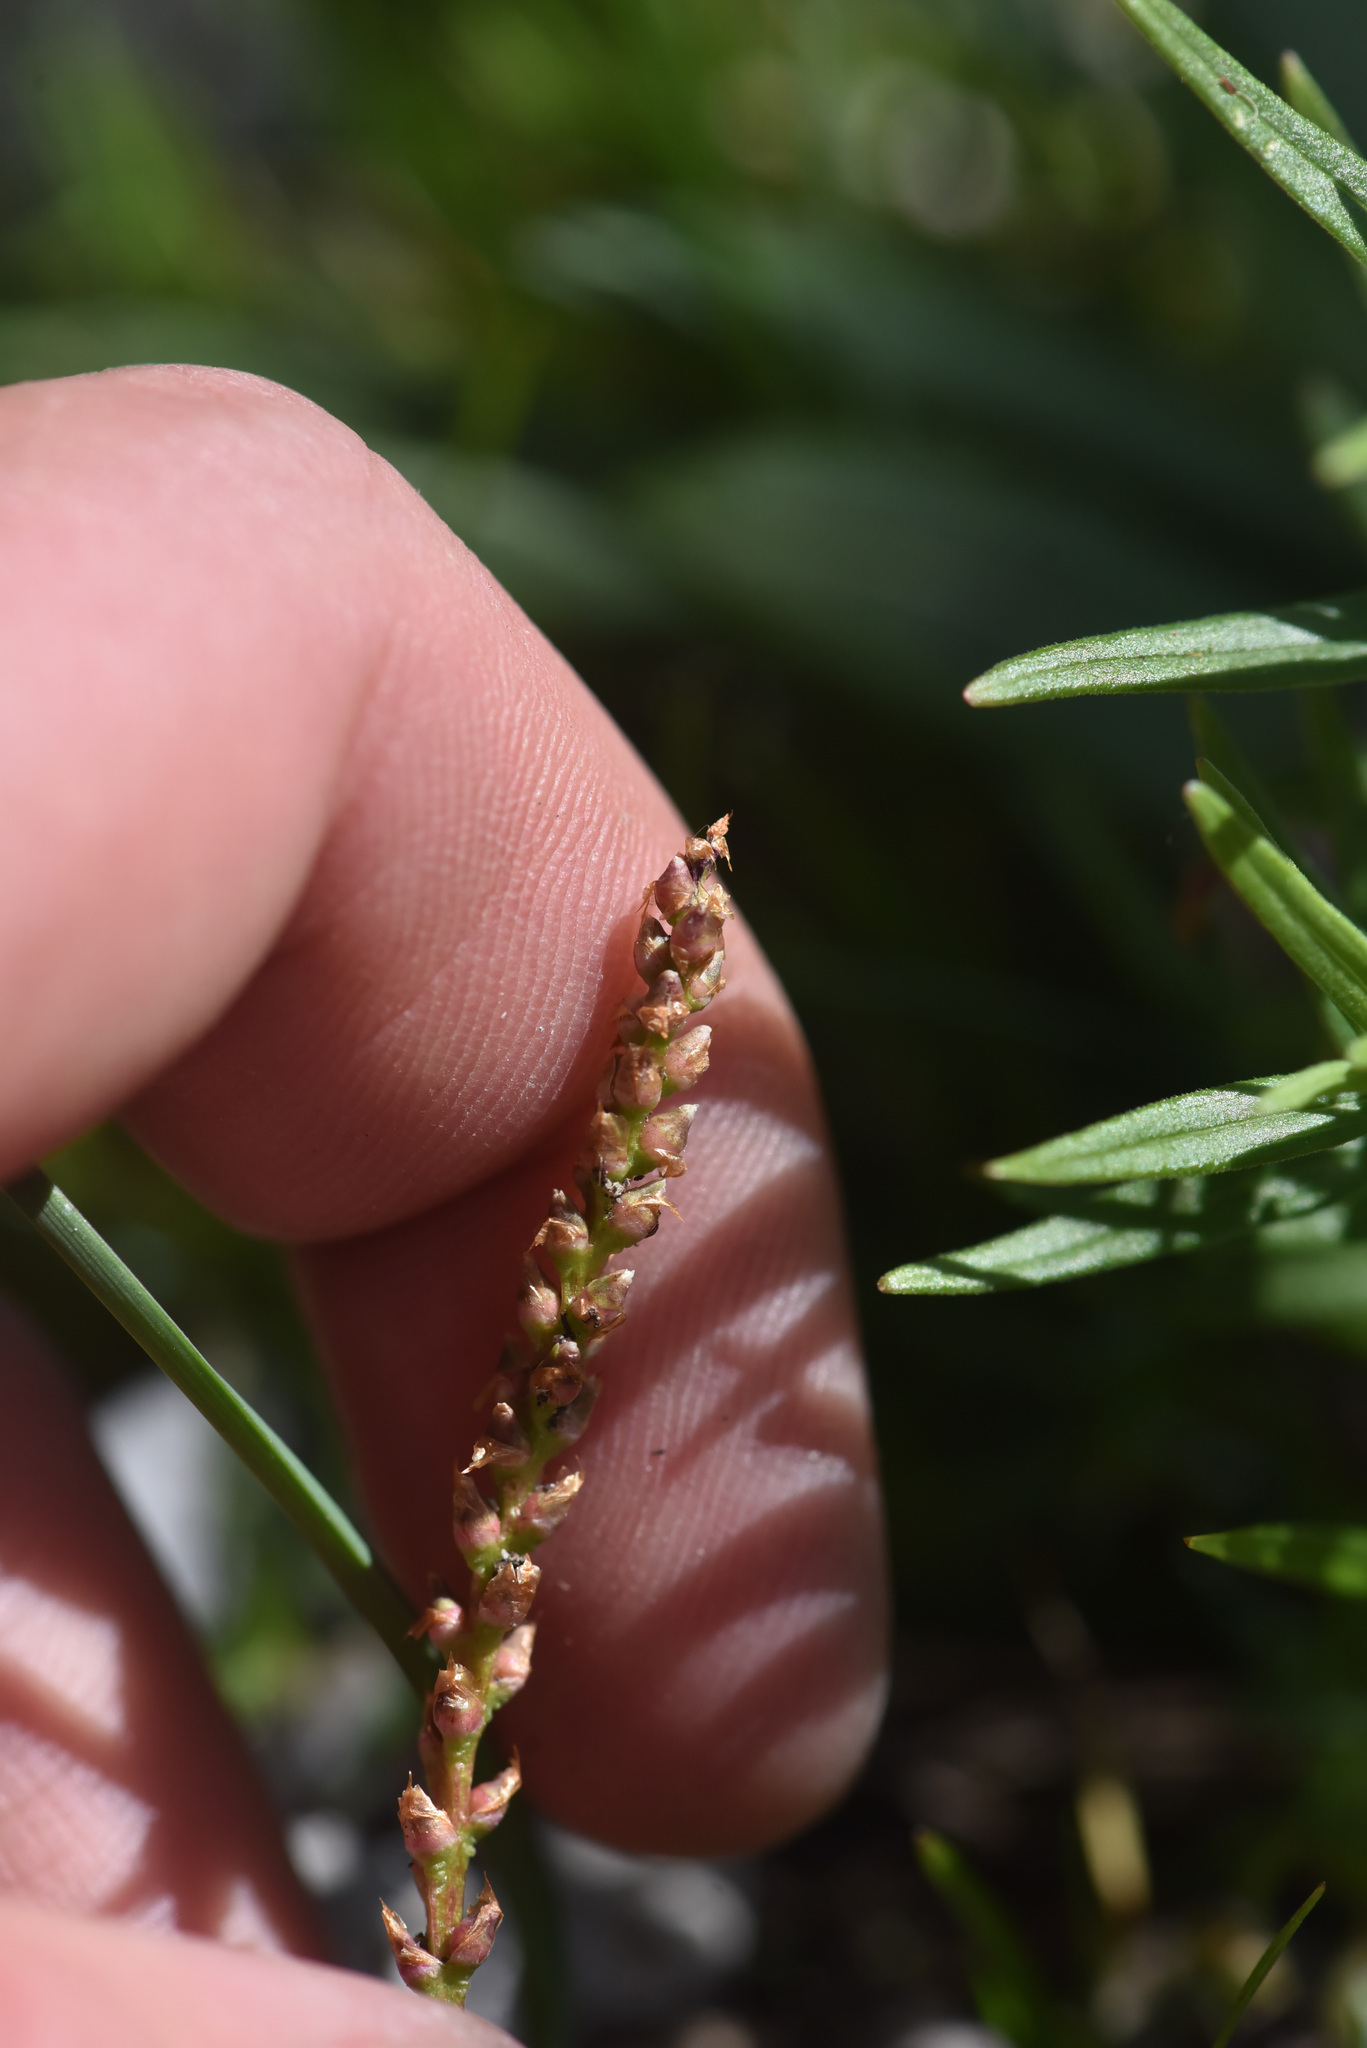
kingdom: Plantae
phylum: Tracheophyta
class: Magnoliopsida
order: Caryophyllales
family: Polygonaceae
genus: Bistorta
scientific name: Bistorta vivipara
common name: Alpine bistort
